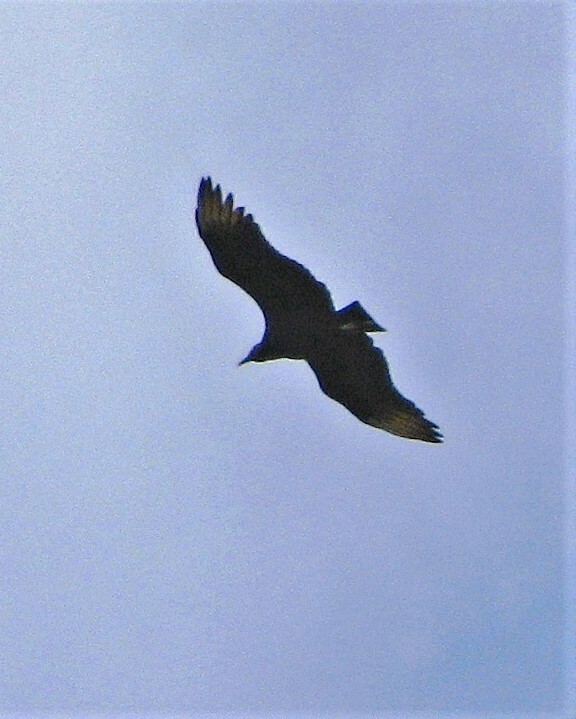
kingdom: Animalia
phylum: Chordata
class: Aves
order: Accipitriformes
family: Cathartidae
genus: Coragyps
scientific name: Coragyps atratus
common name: Black vulture
